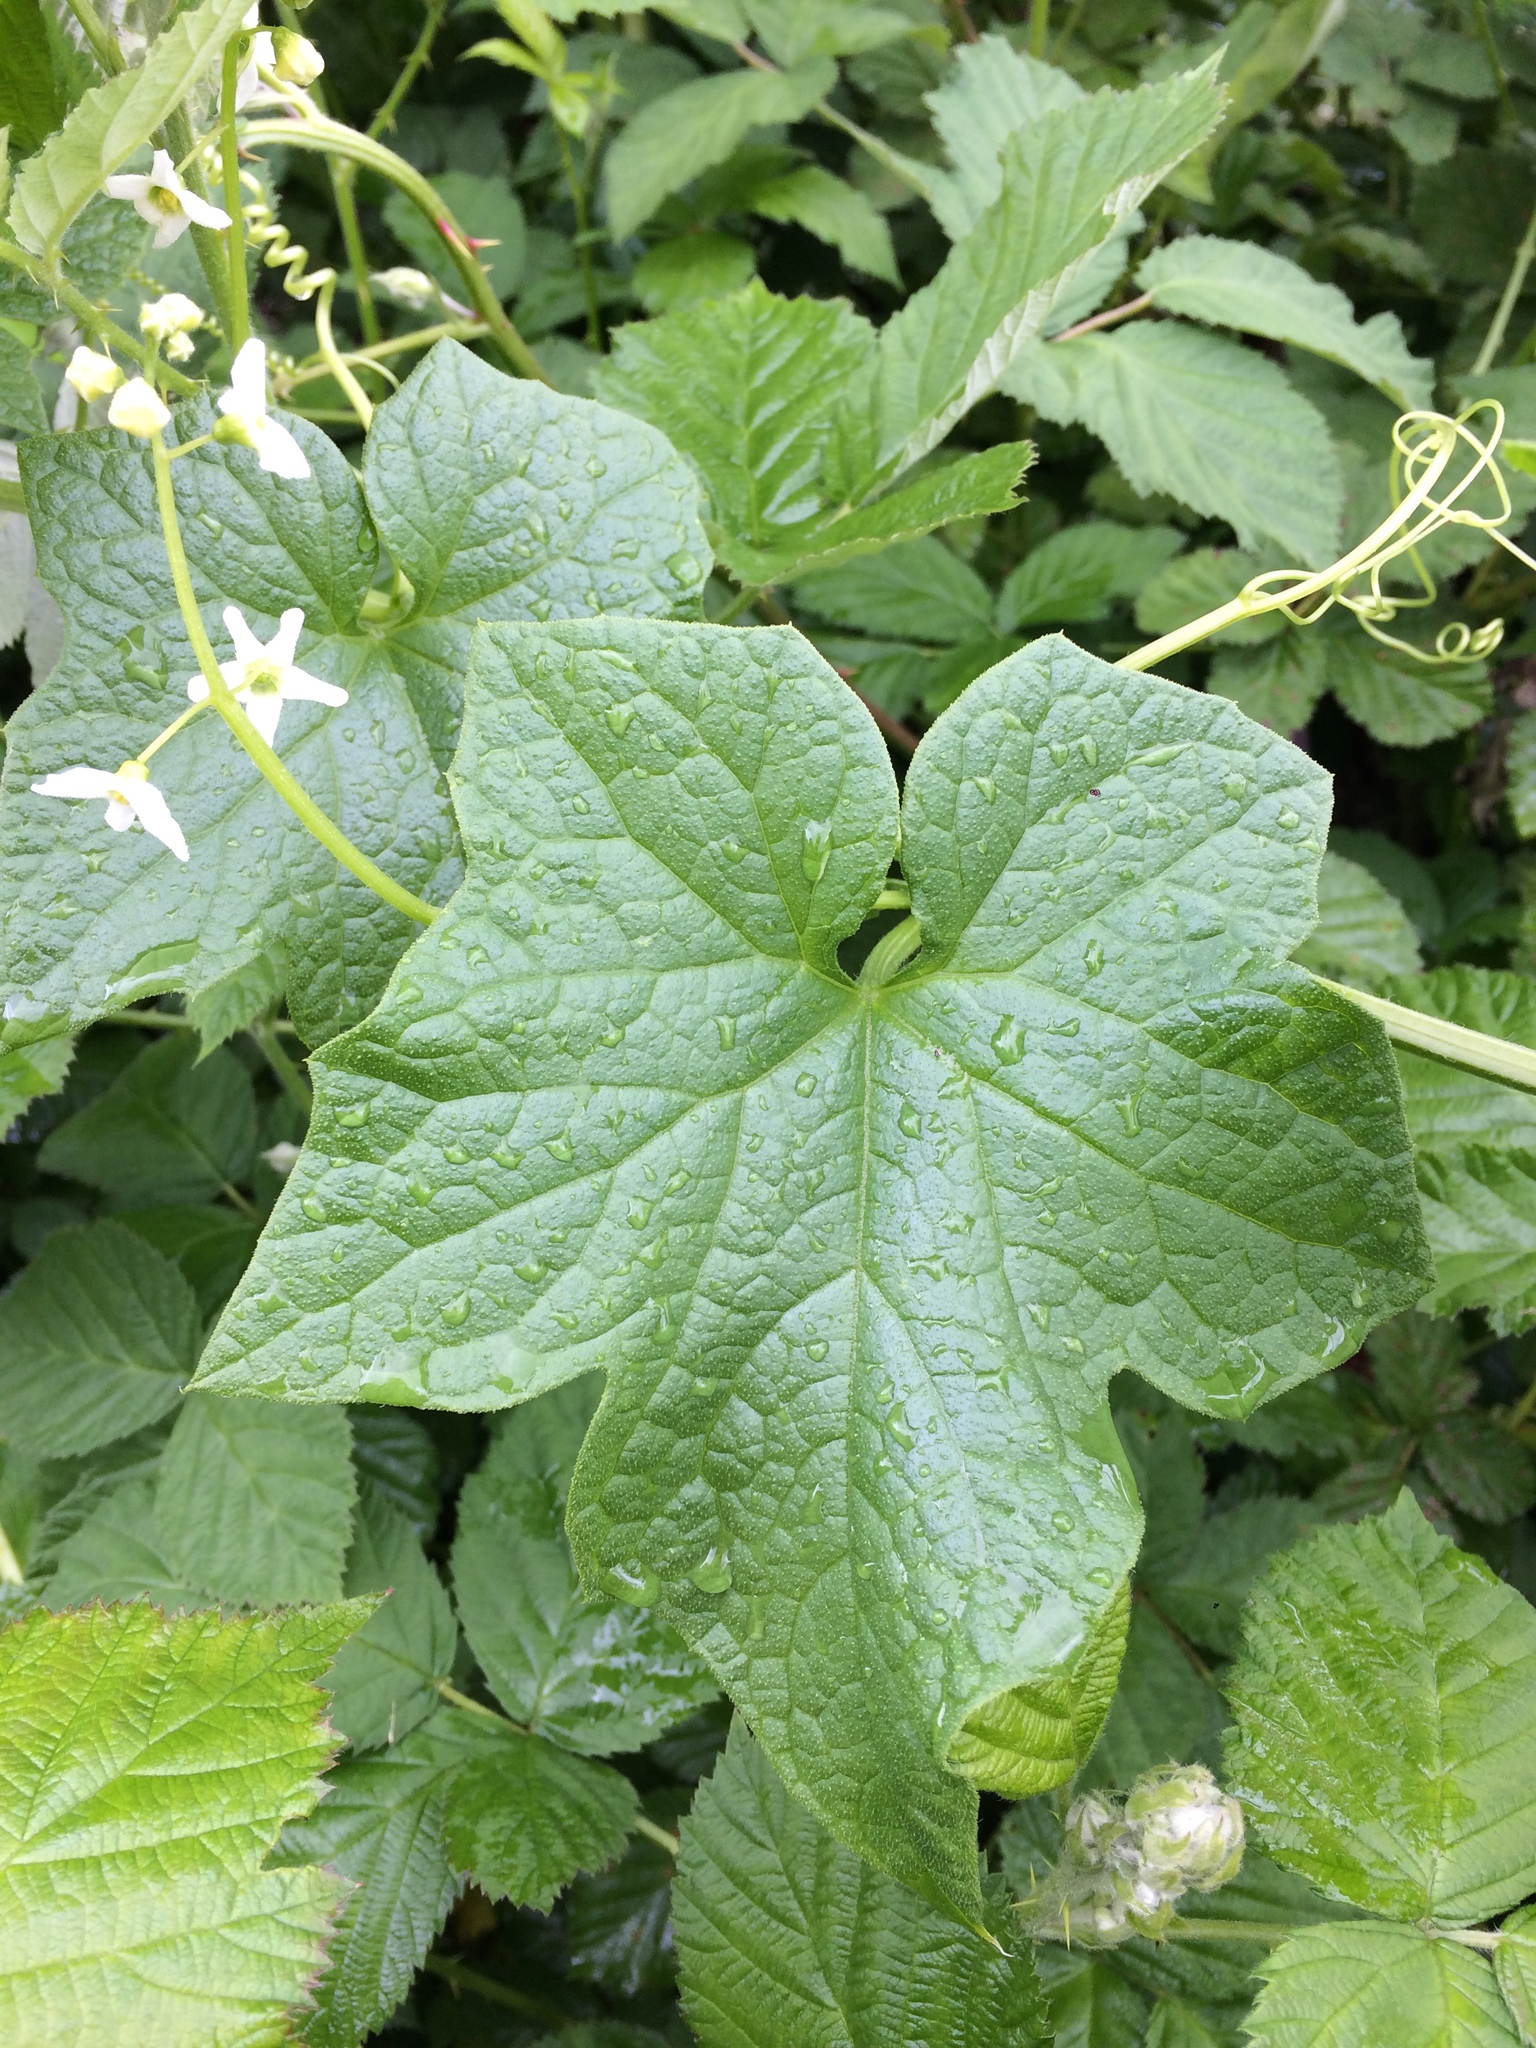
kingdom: Plantae
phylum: Tracheophyta
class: Magnoliopsida
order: Cucurbitales
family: Cucurbitaceae
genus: Marah
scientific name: Marah oregana
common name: Coastal manroot
